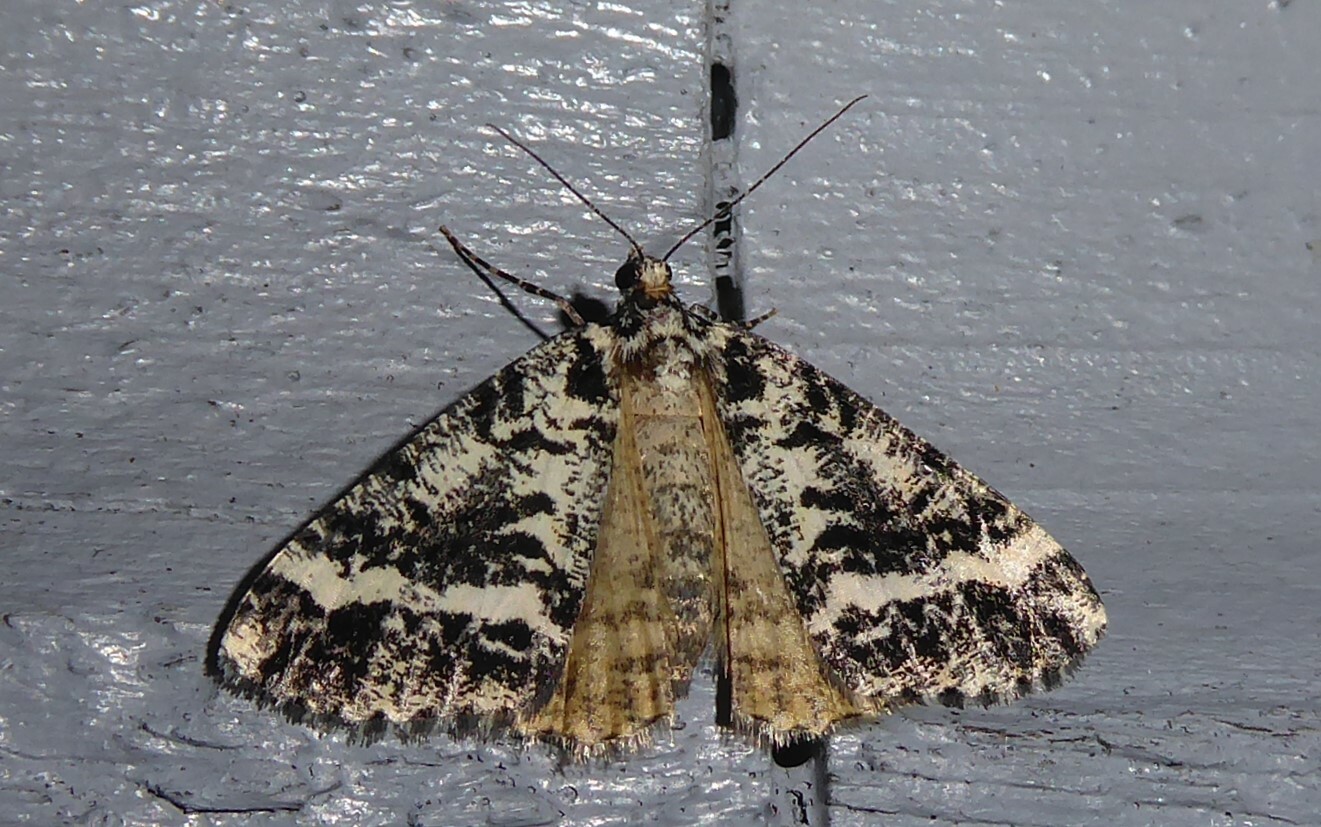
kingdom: Animalia
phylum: Arthropoda
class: Insecta
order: Lepidoptera
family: Geometridae
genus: Pseudocoremia
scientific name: Pseudocoremia leucelaea
